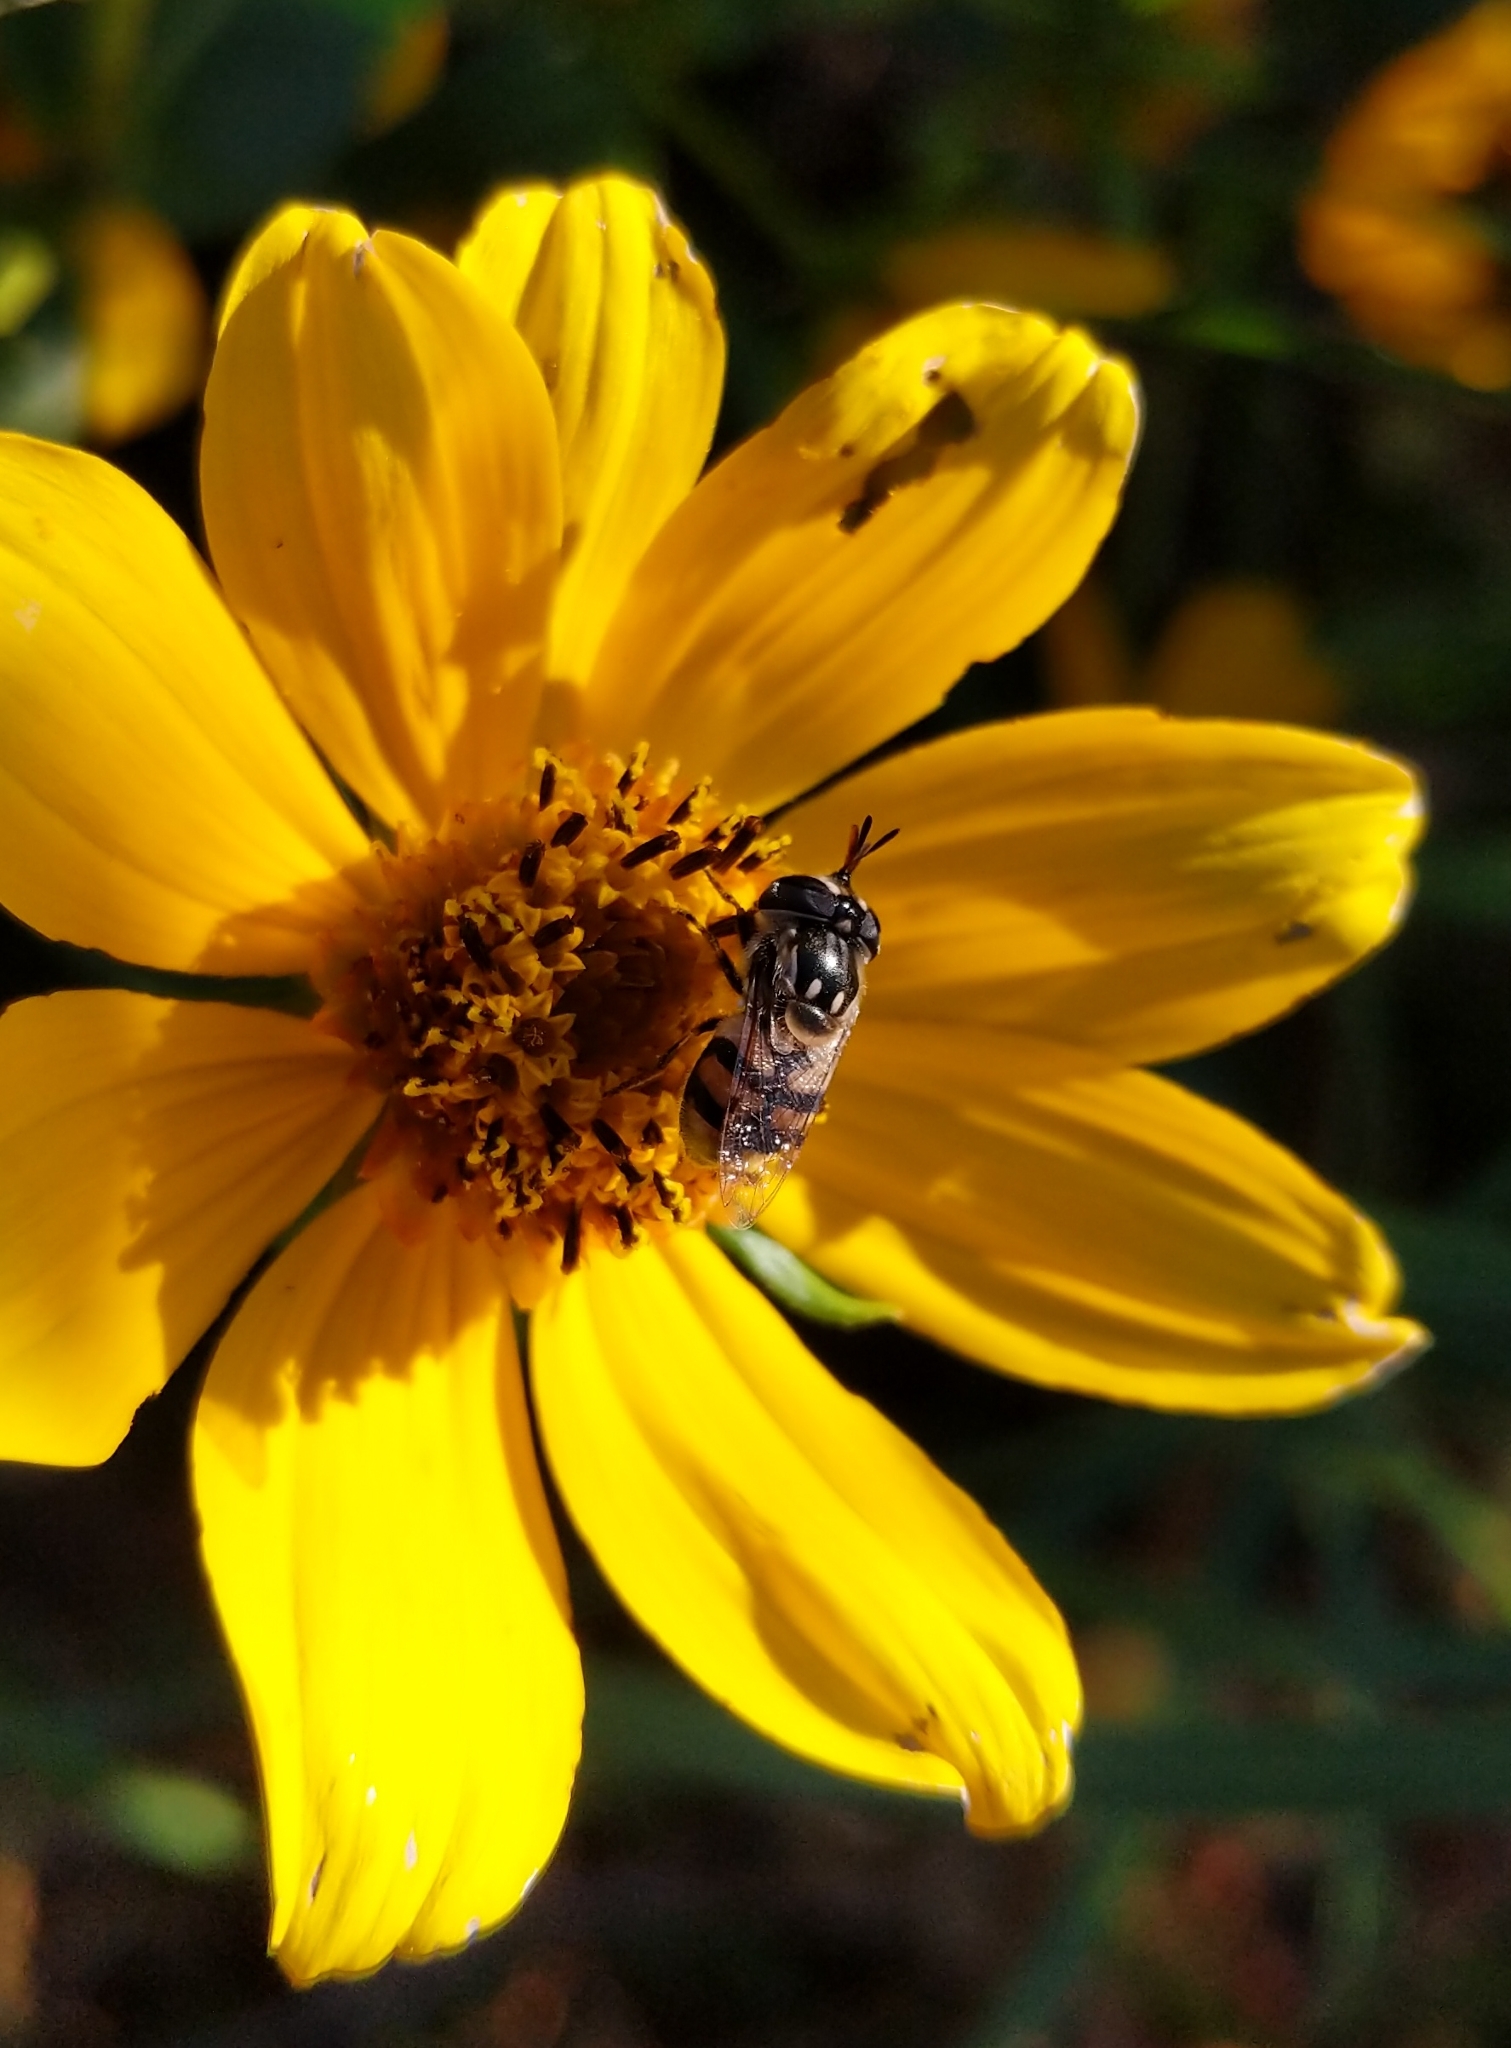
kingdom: Animalia
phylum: Arthropoda
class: Insecta
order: Diptera
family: Syrphidae
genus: Copestylum
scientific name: Copestylum marginatum
